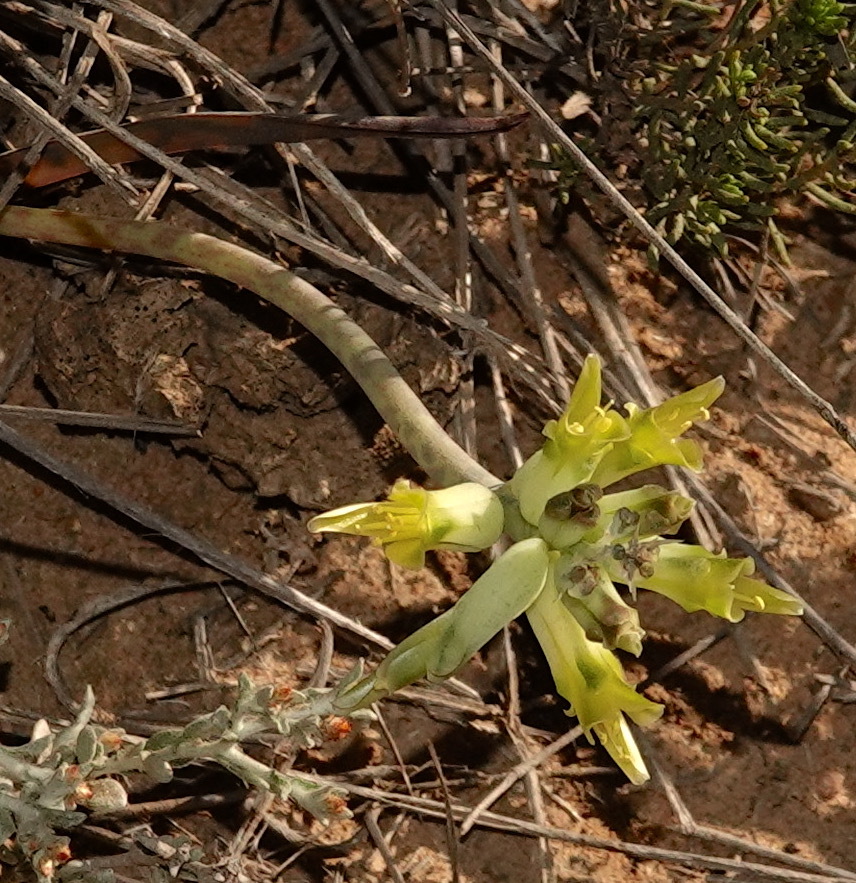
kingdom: Plantae
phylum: Tracheophyta
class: Liliopsida
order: Asparagales
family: Asparagaceae
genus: Lachenalia
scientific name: Lachenalia orchioides
